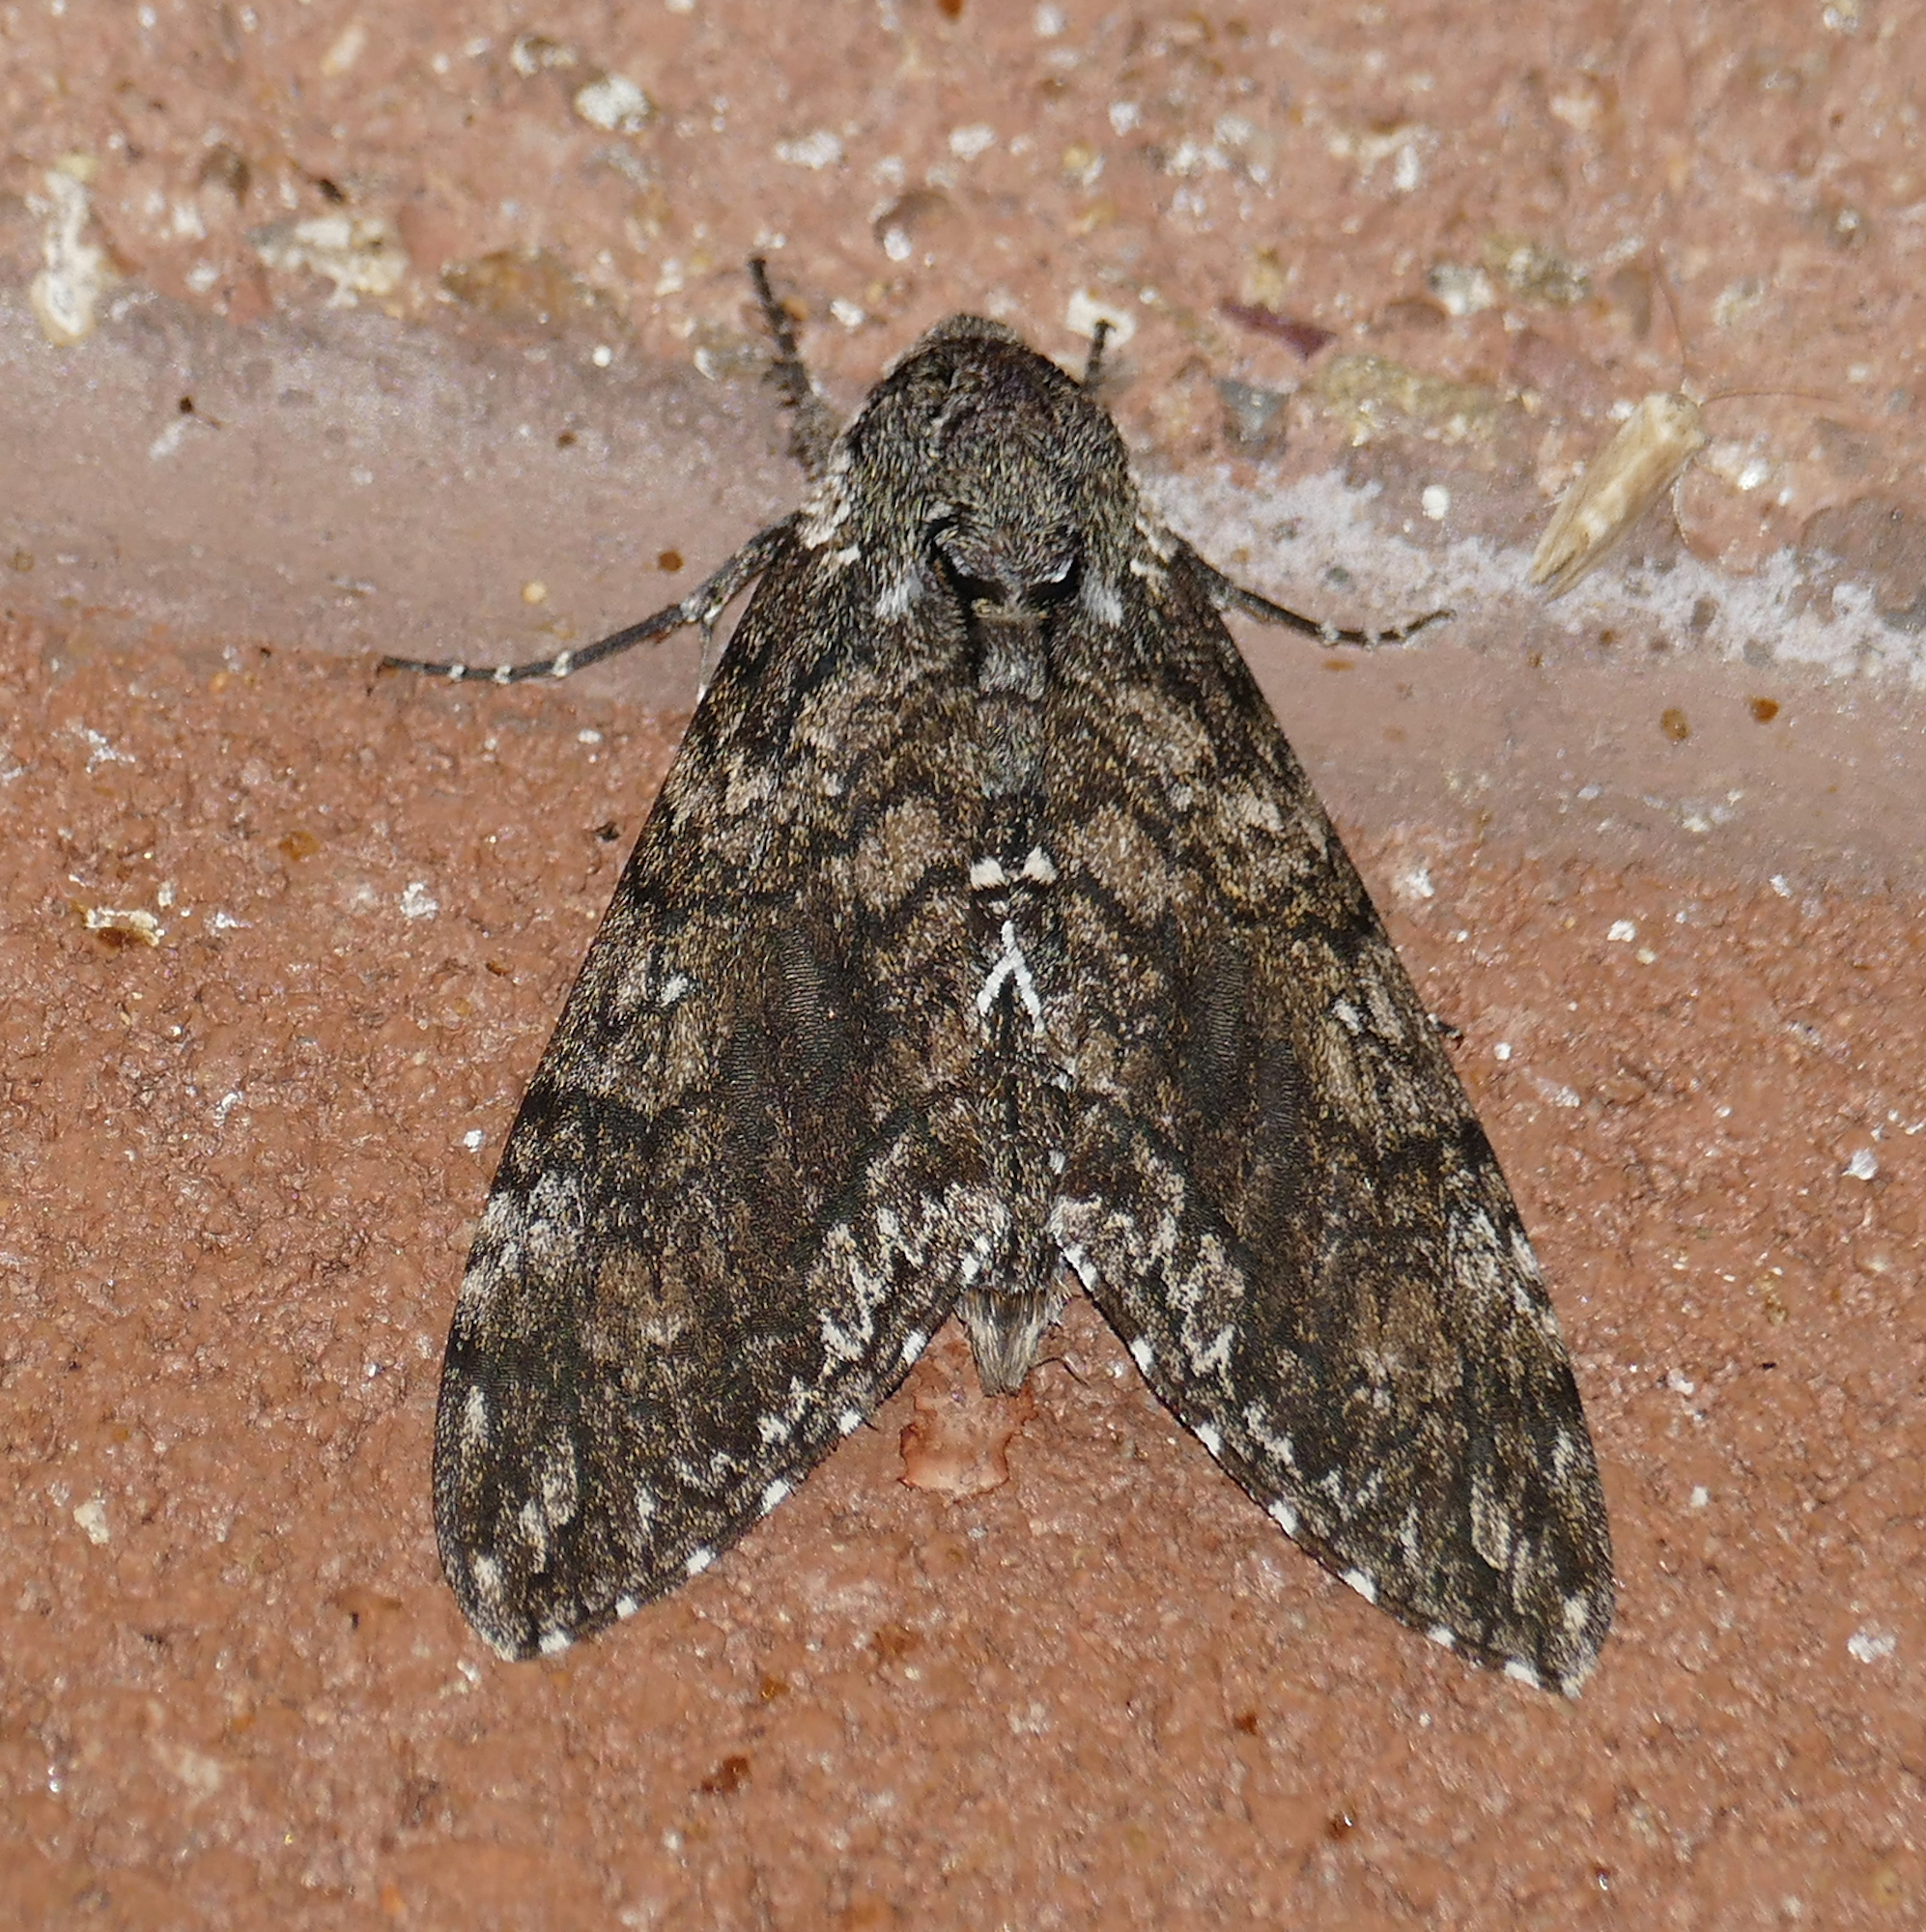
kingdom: Animalia
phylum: Arthropoda
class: Insecta
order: Lepidoptera
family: Sphingidae
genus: Manduca
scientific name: Manduca sexta
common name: Carolina sphinx
